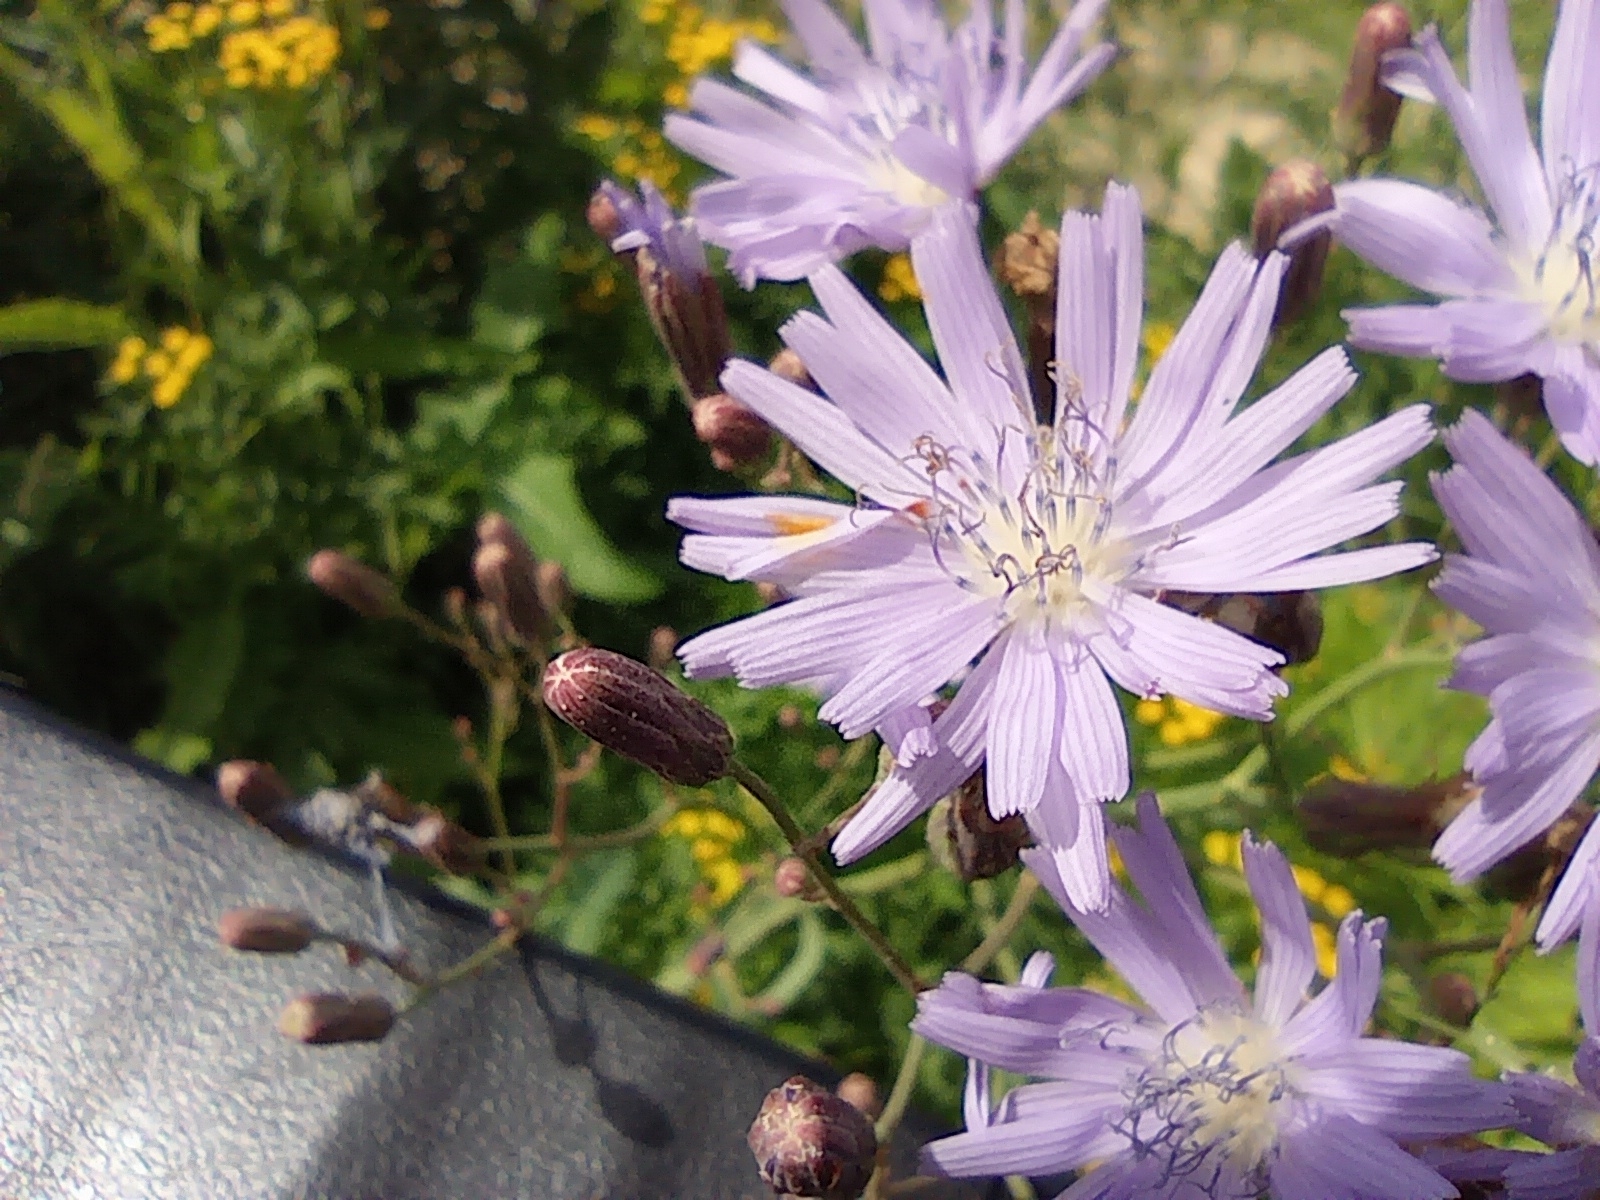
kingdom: Plantae
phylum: Tracheophyta
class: Magnoliopsida
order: Asterales
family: Asteraceae
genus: Lactuca
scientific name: Lactuca tatarica
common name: Blue lettuce
